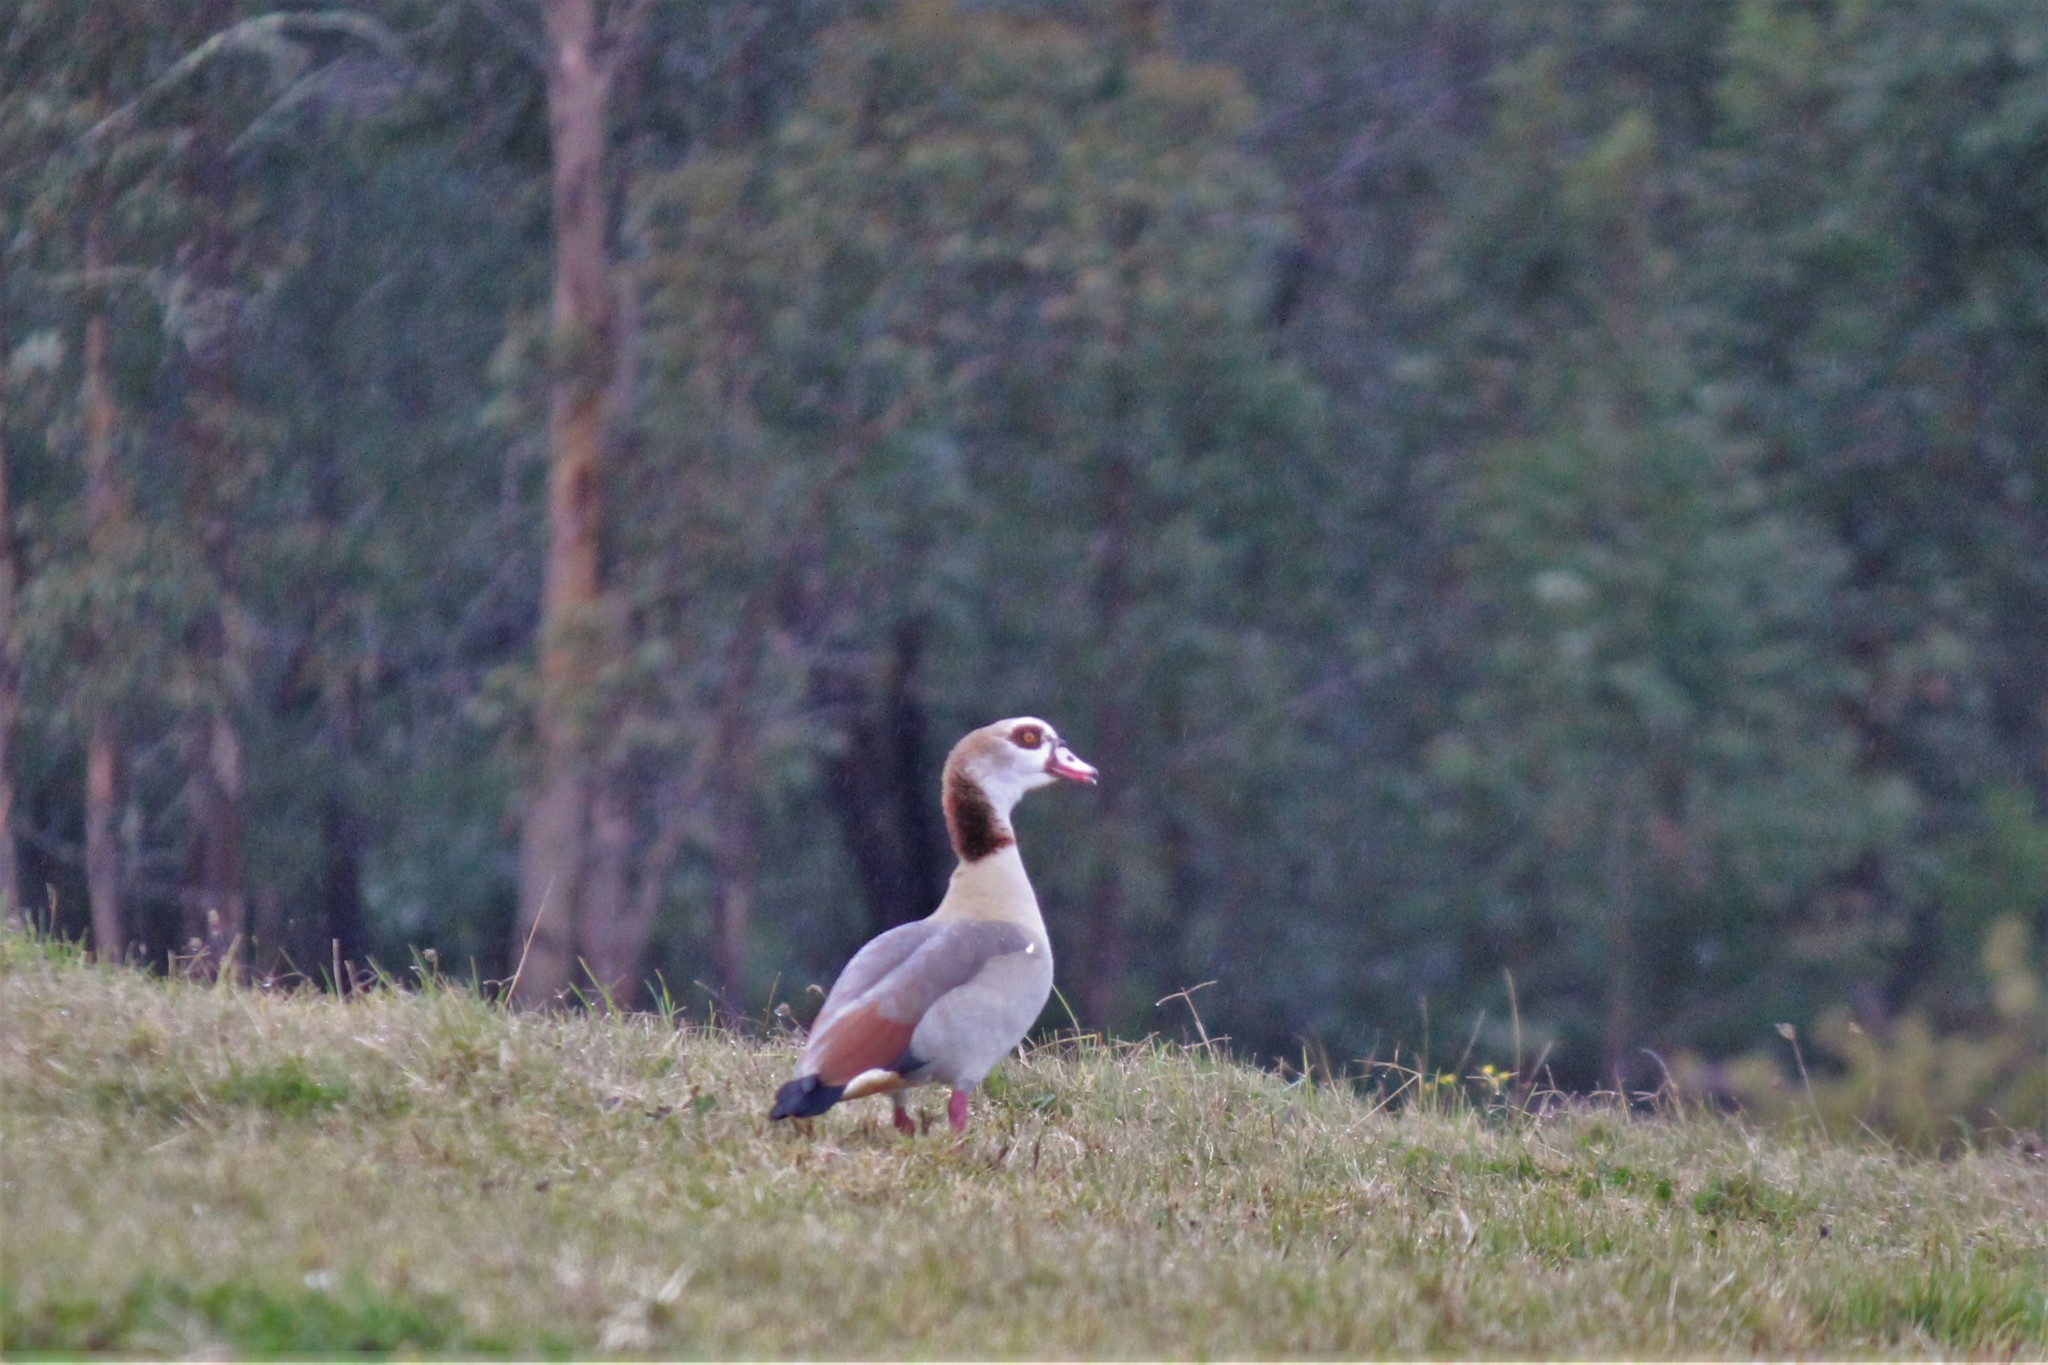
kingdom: Animalia
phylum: Chordata
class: Aves
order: Anseriformes
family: Anatidae
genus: Alopochen
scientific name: Alopochen aegyptiaca
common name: Egyptian goose
